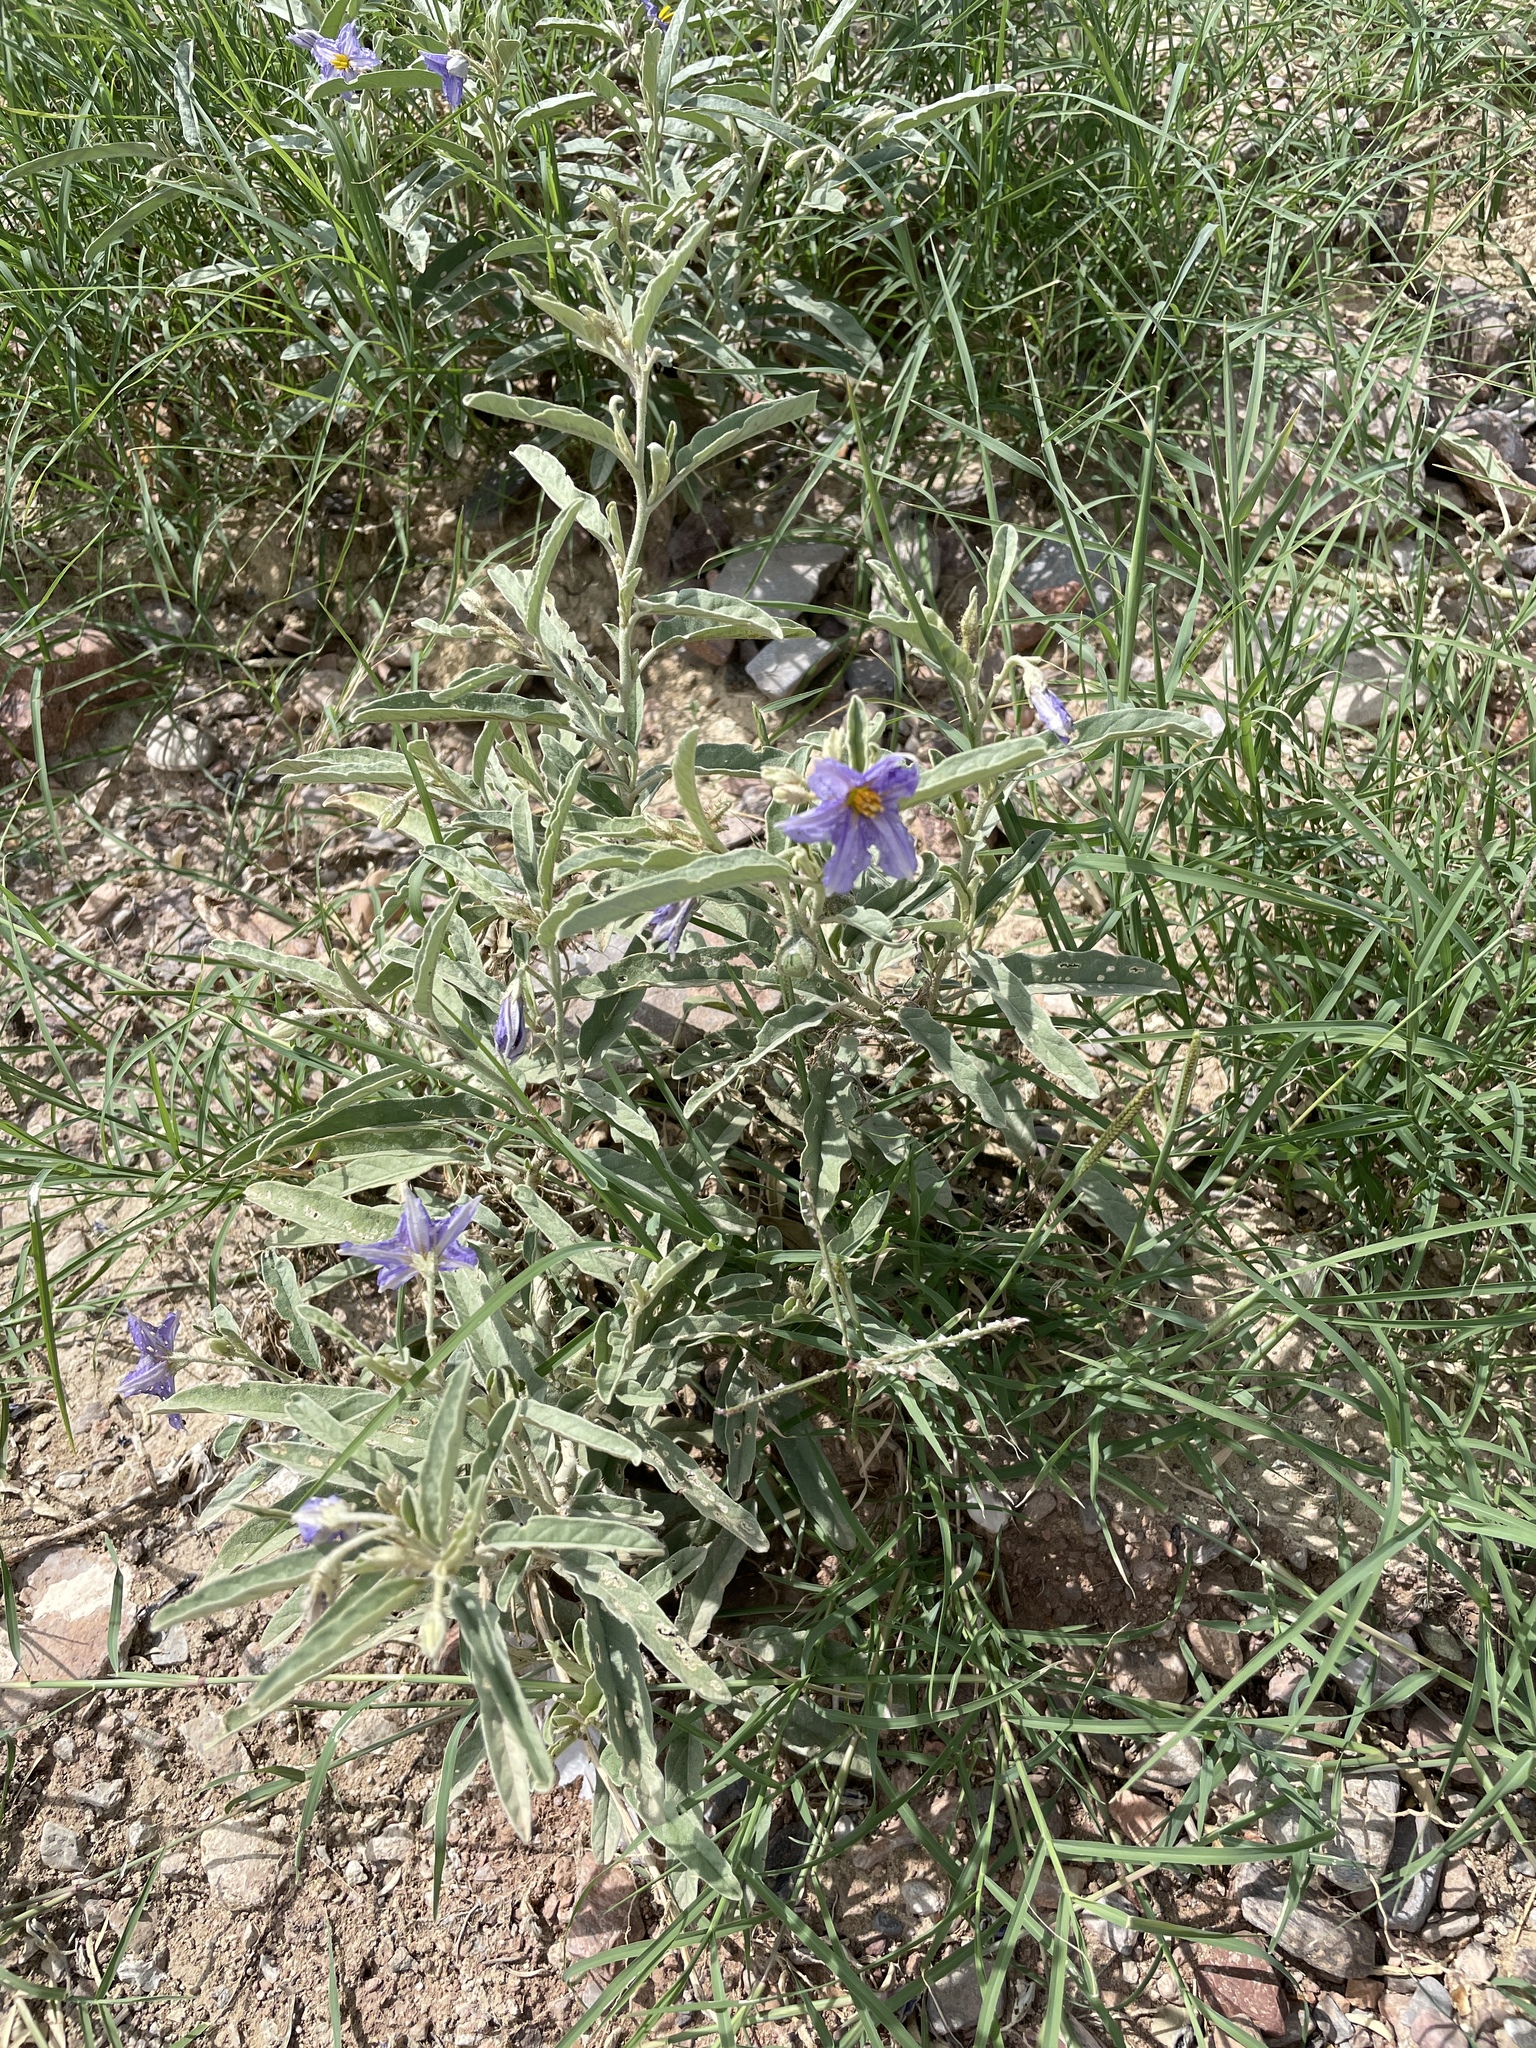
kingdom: Plantae
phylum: Tracheophyta
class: Magnoliopsida
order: Solanales
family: Solanaceae
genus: Solanum
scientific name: Solanum elaeagnifolium
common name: Silverleaf nightshade
